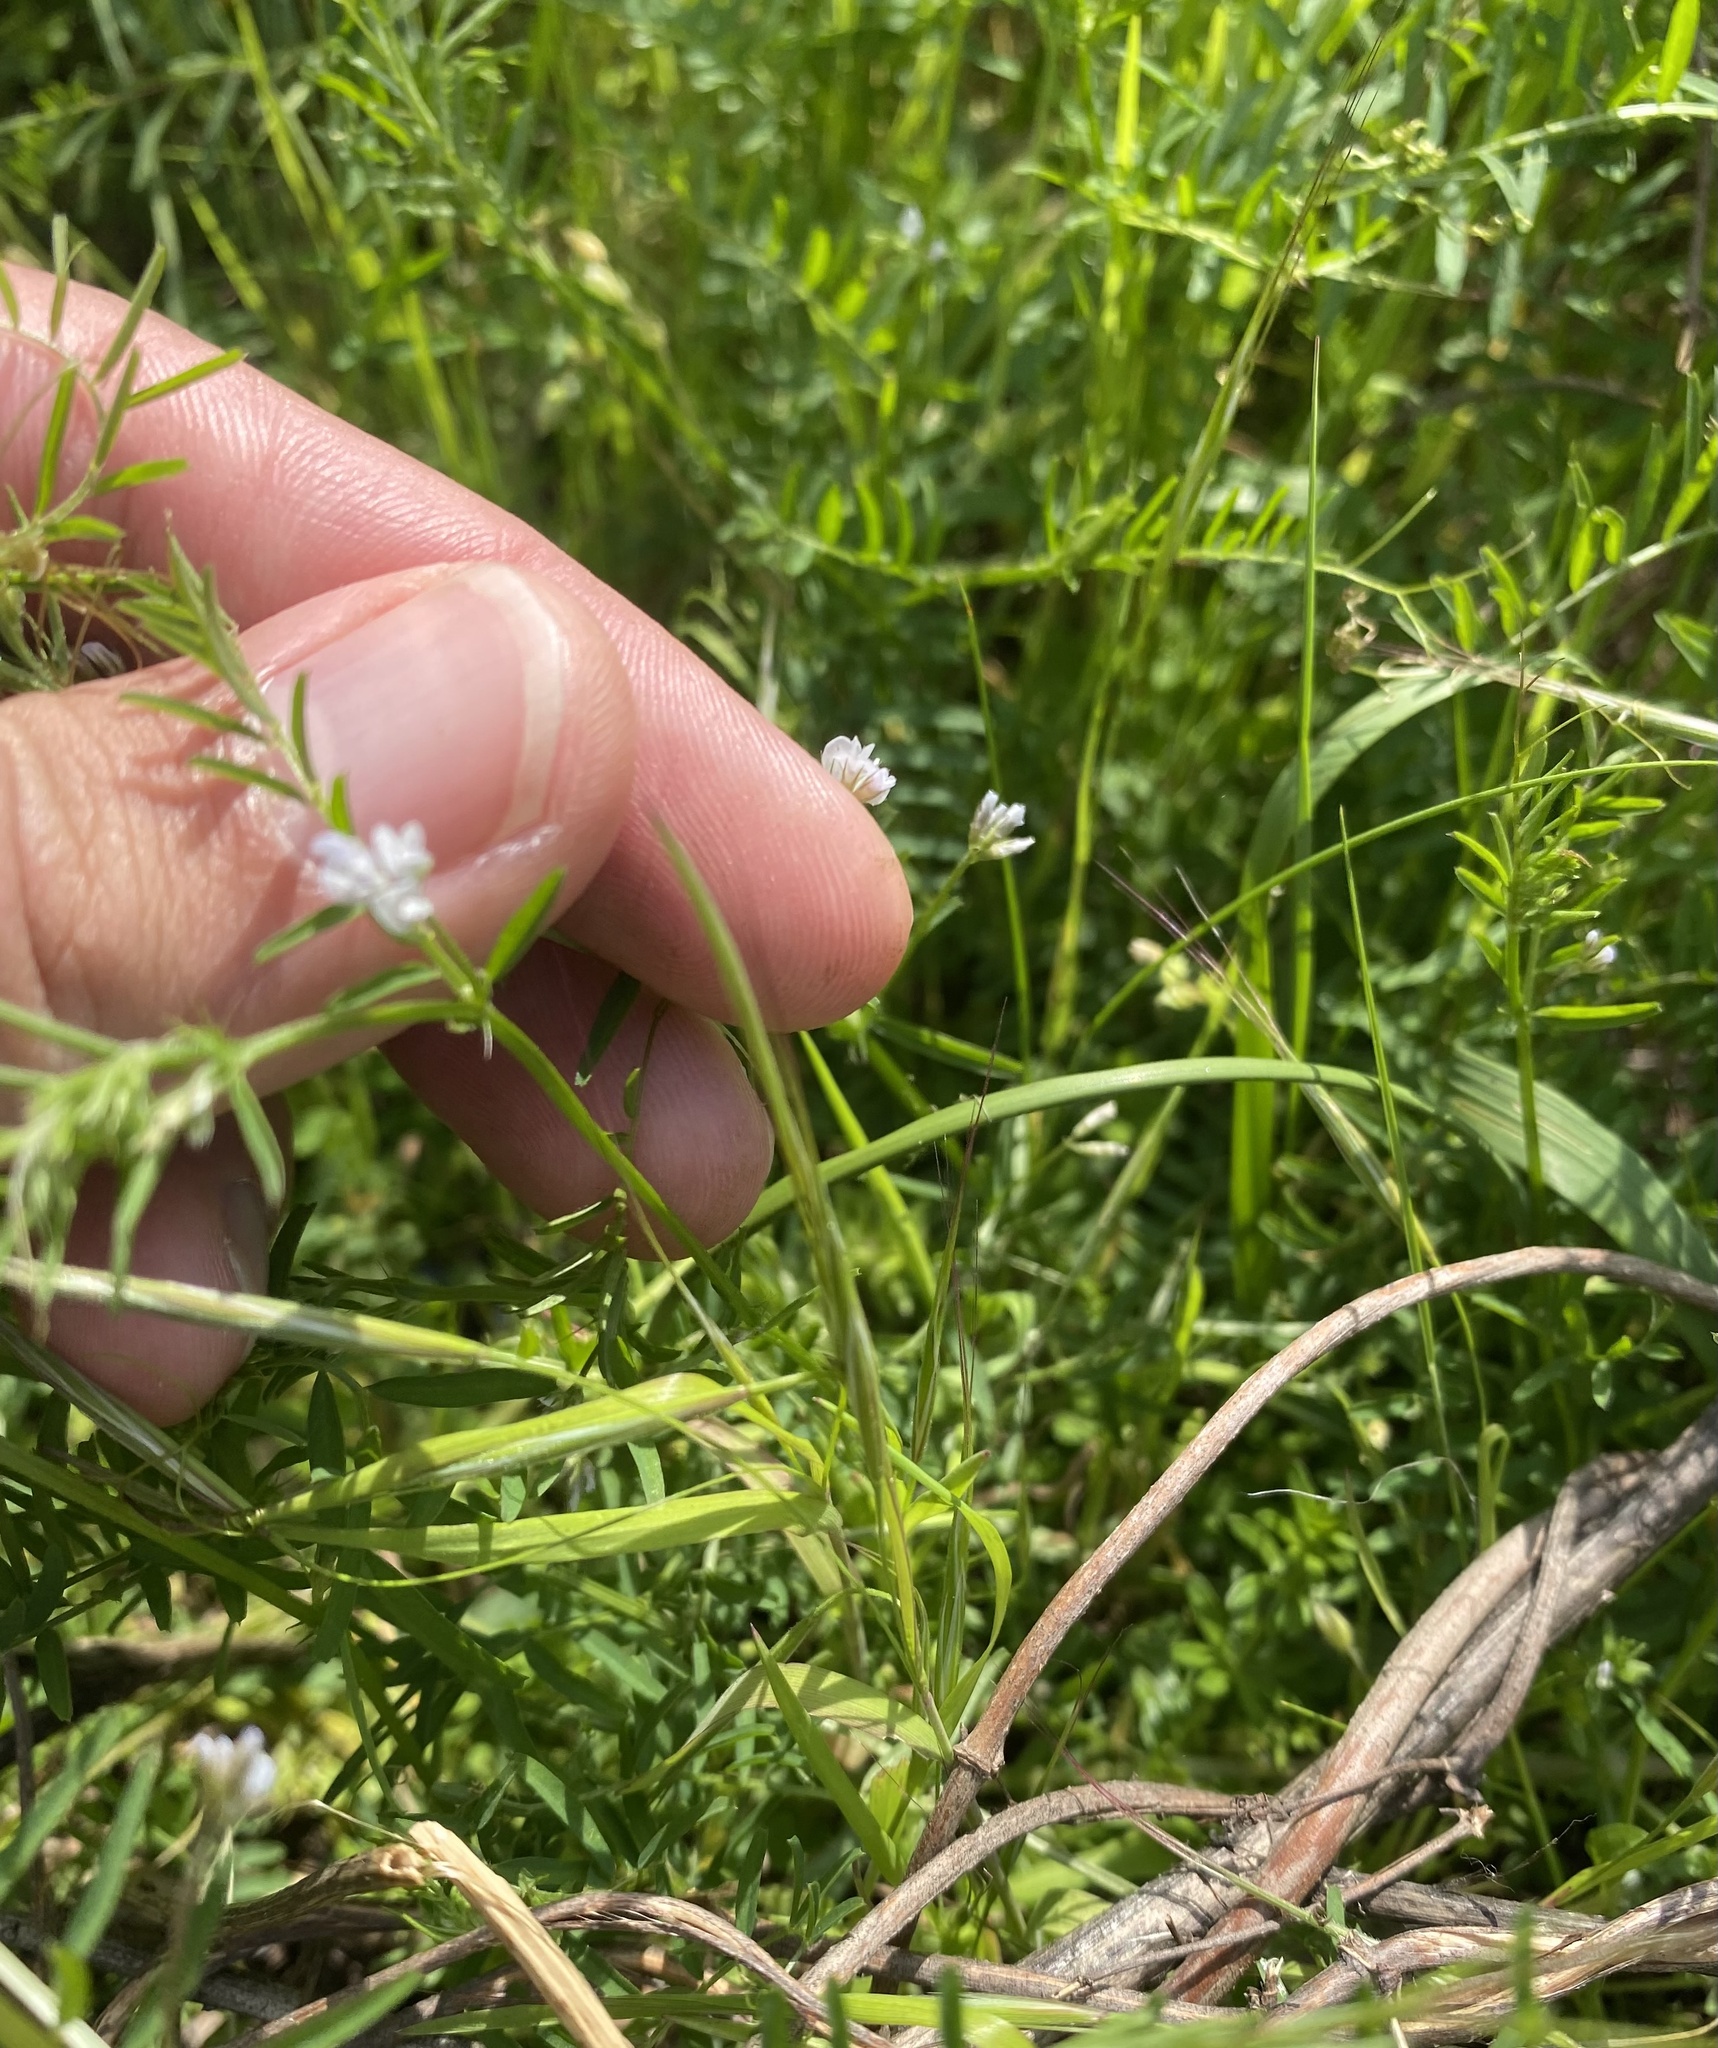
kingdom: Plantae
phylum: Tracheophyta
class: Magnoliopsida
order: Fabales
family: Fabaceae
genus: Vicia
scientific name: Vicia hirsuta
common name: Tiny vetch
